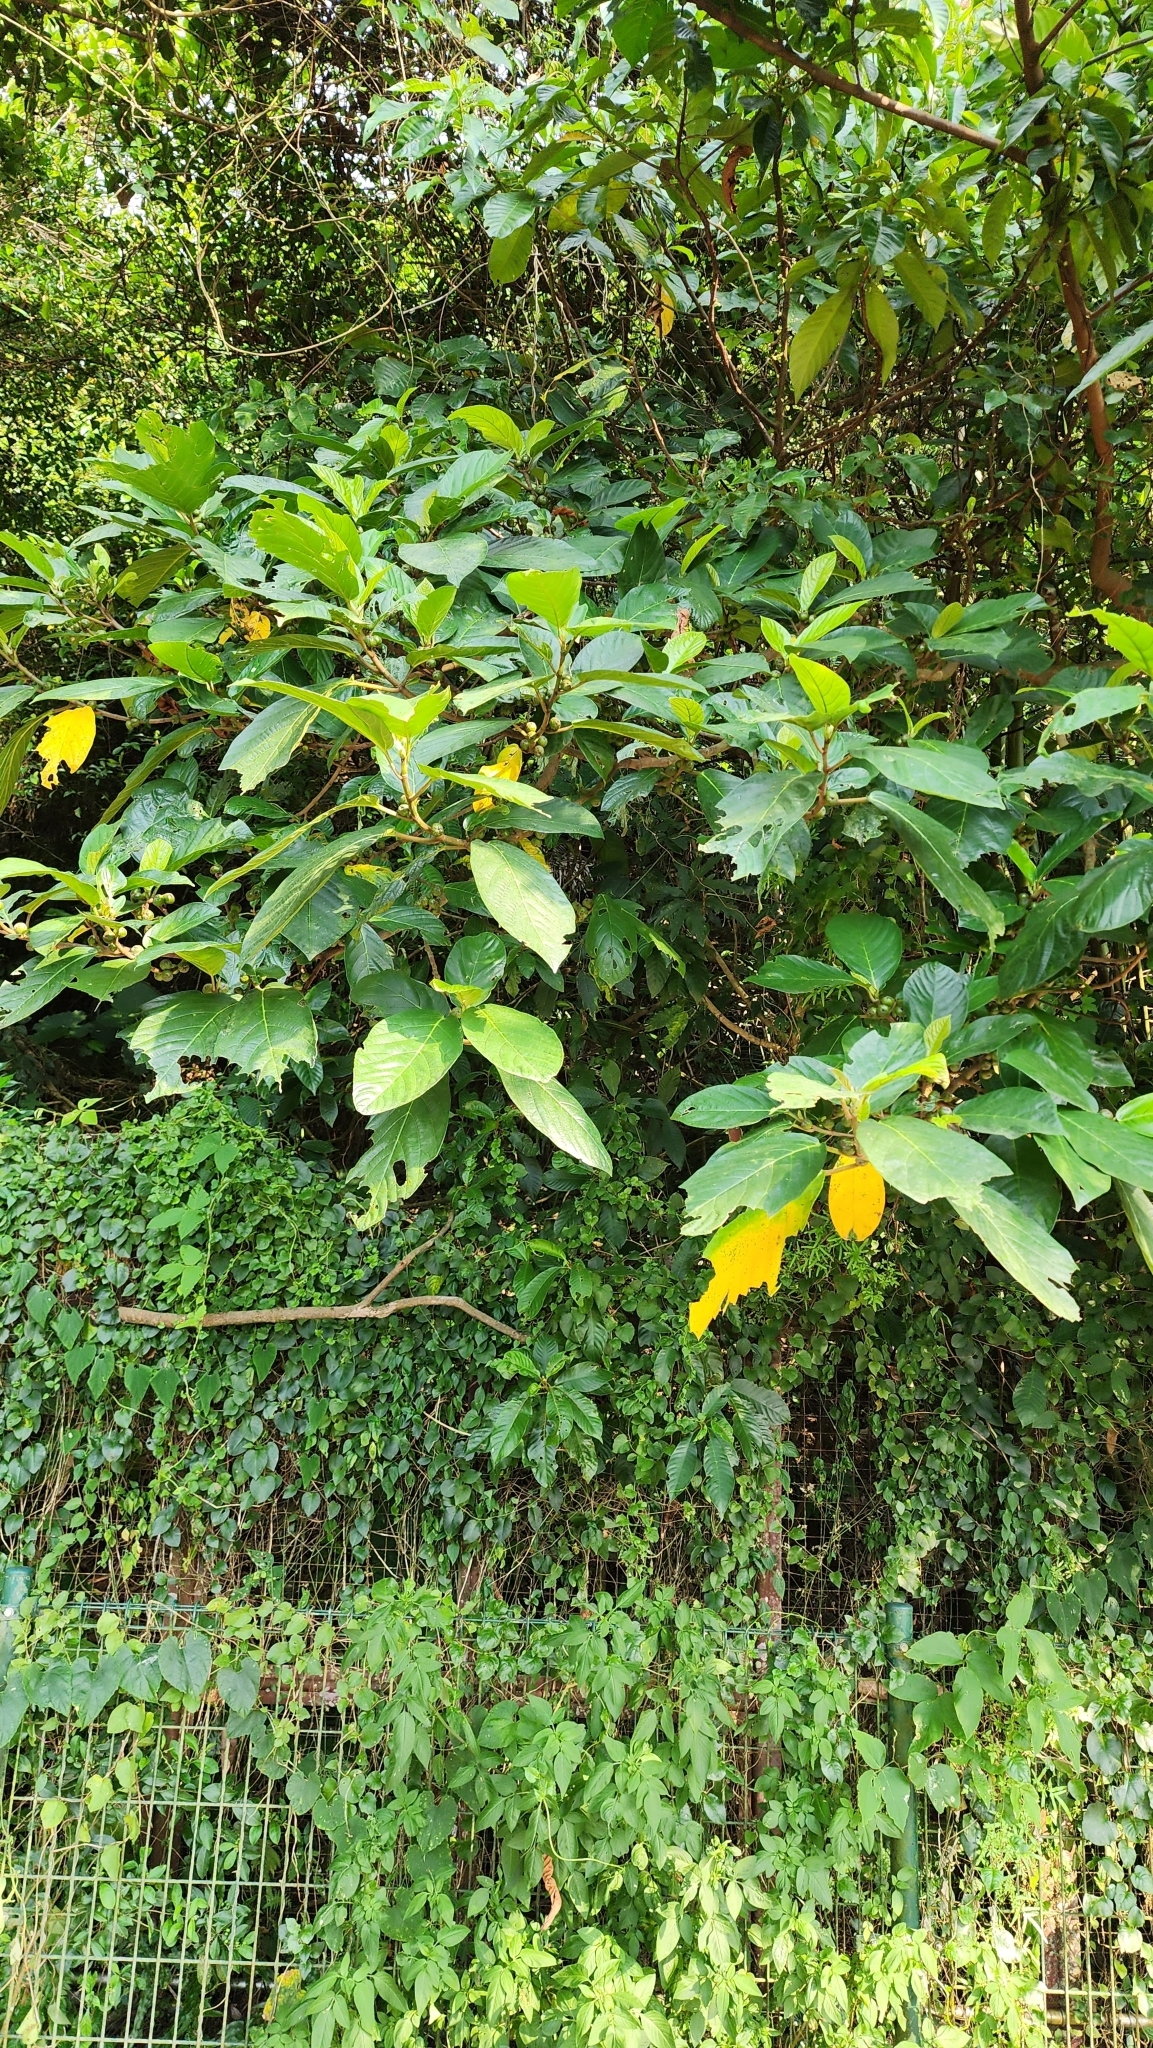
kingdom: Plantae
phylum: Tracheophyta
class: Magnoliopsida
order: Rosales
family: Moraceae
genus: Ficus
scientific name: Ficus septica
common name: Septic fig
